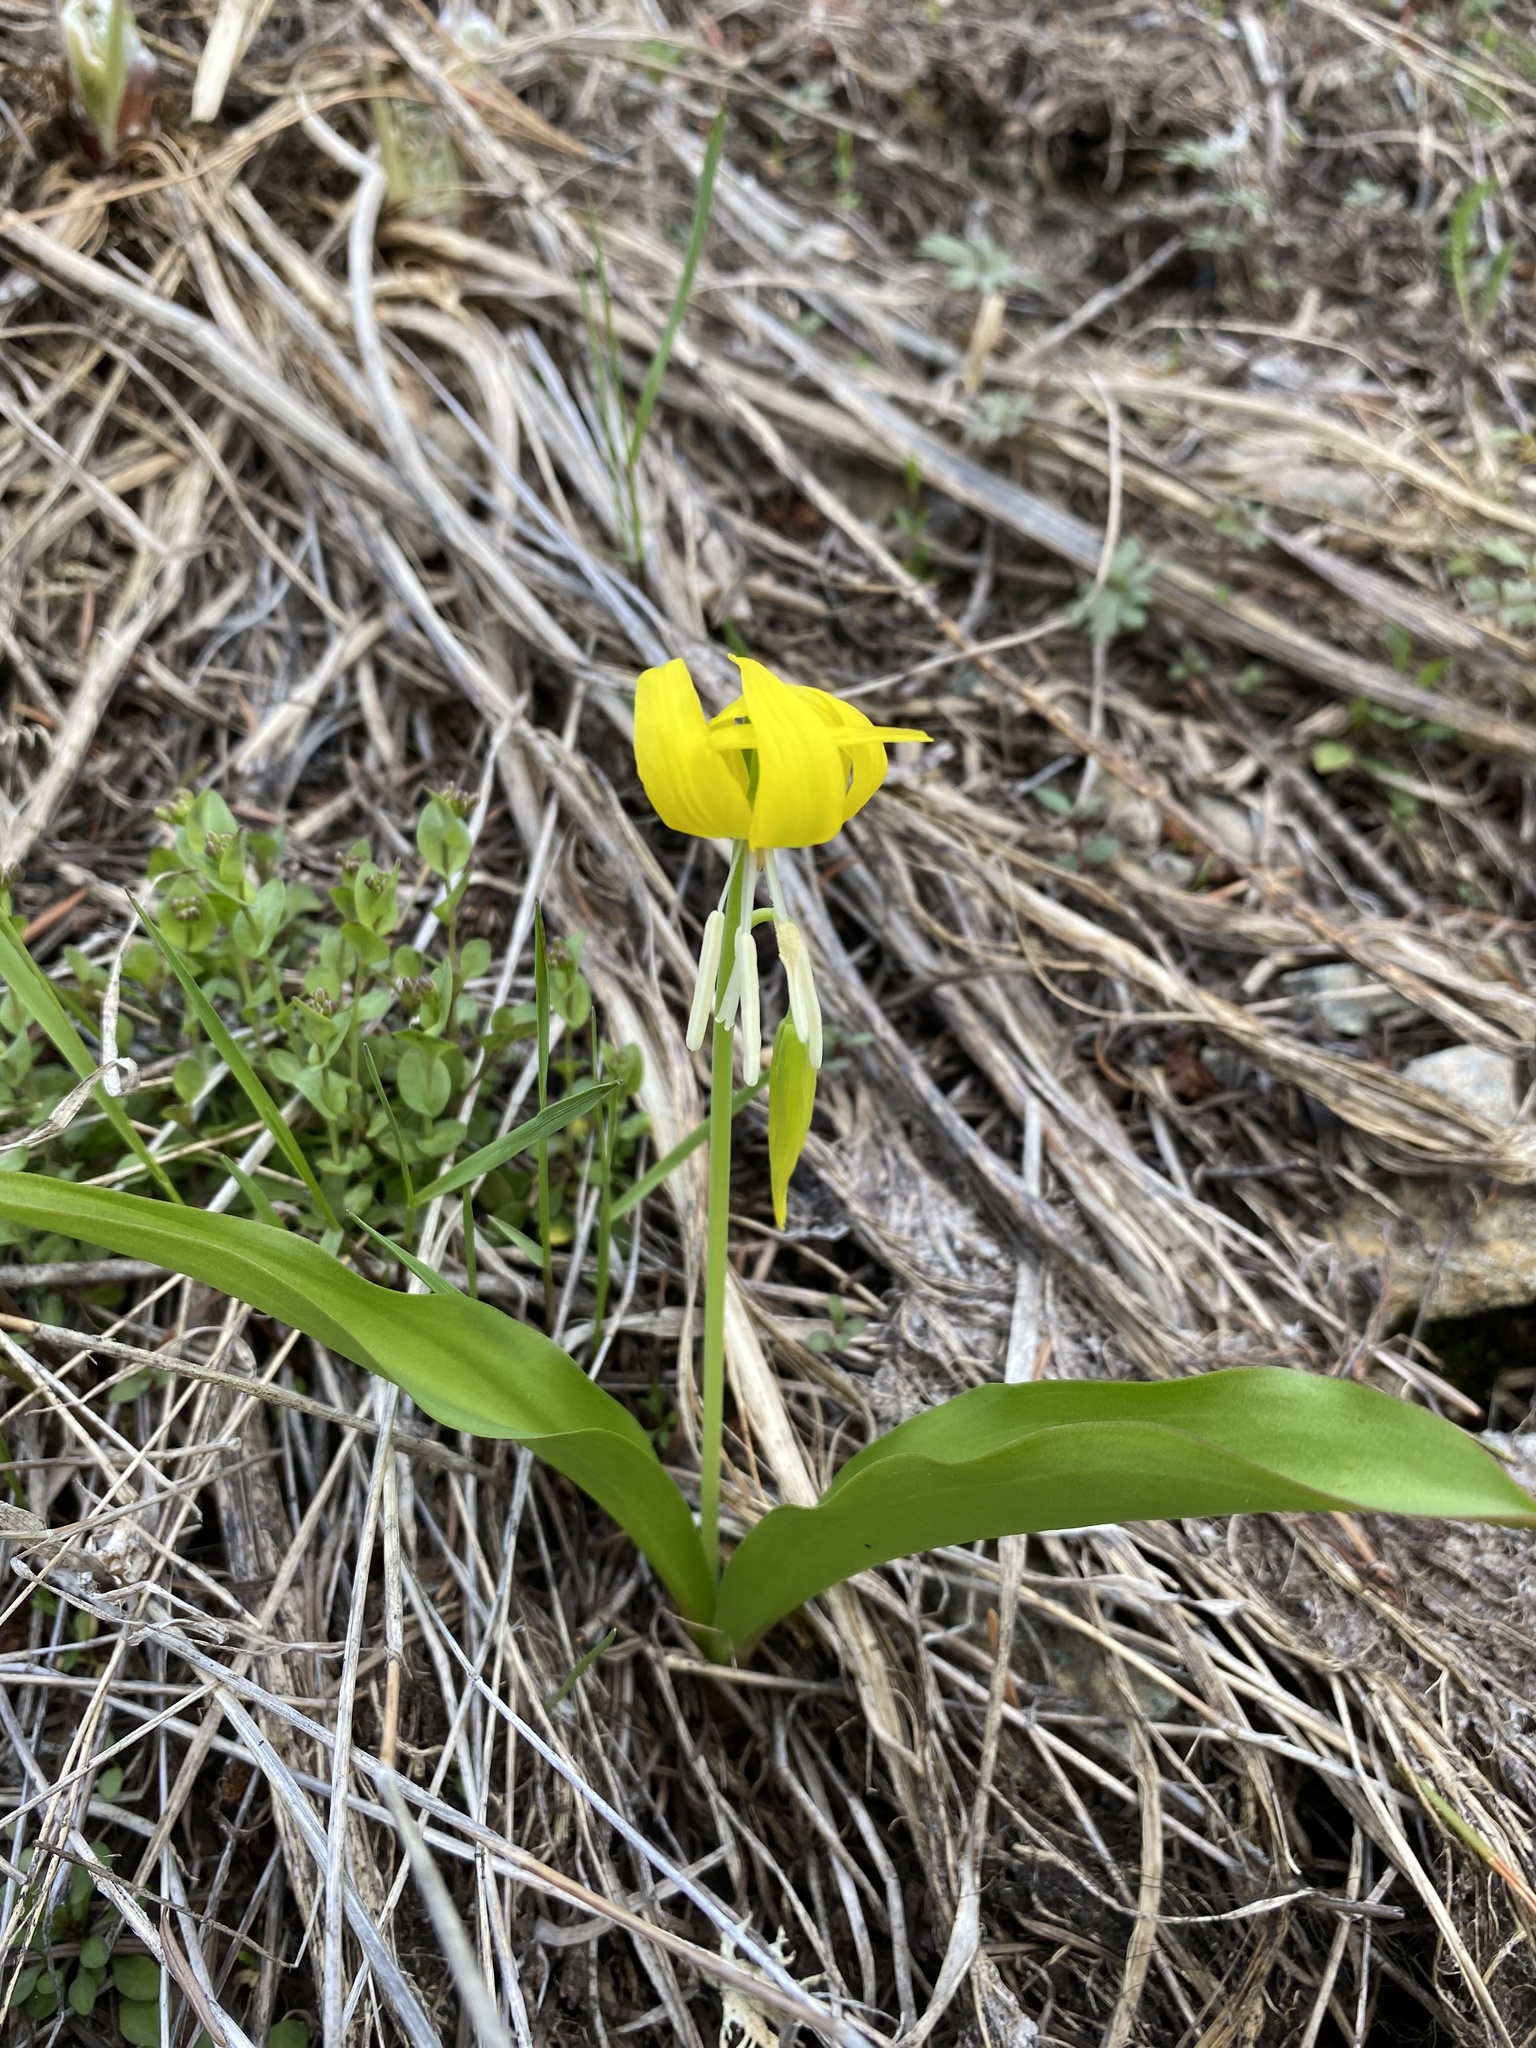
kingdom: Plantae
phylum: Tracheophyta
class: Liliopsida
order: Liliales
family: Liliaceae
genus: Erythronium
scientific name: Erythronium grandiflorum
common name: Avalanche-lily
